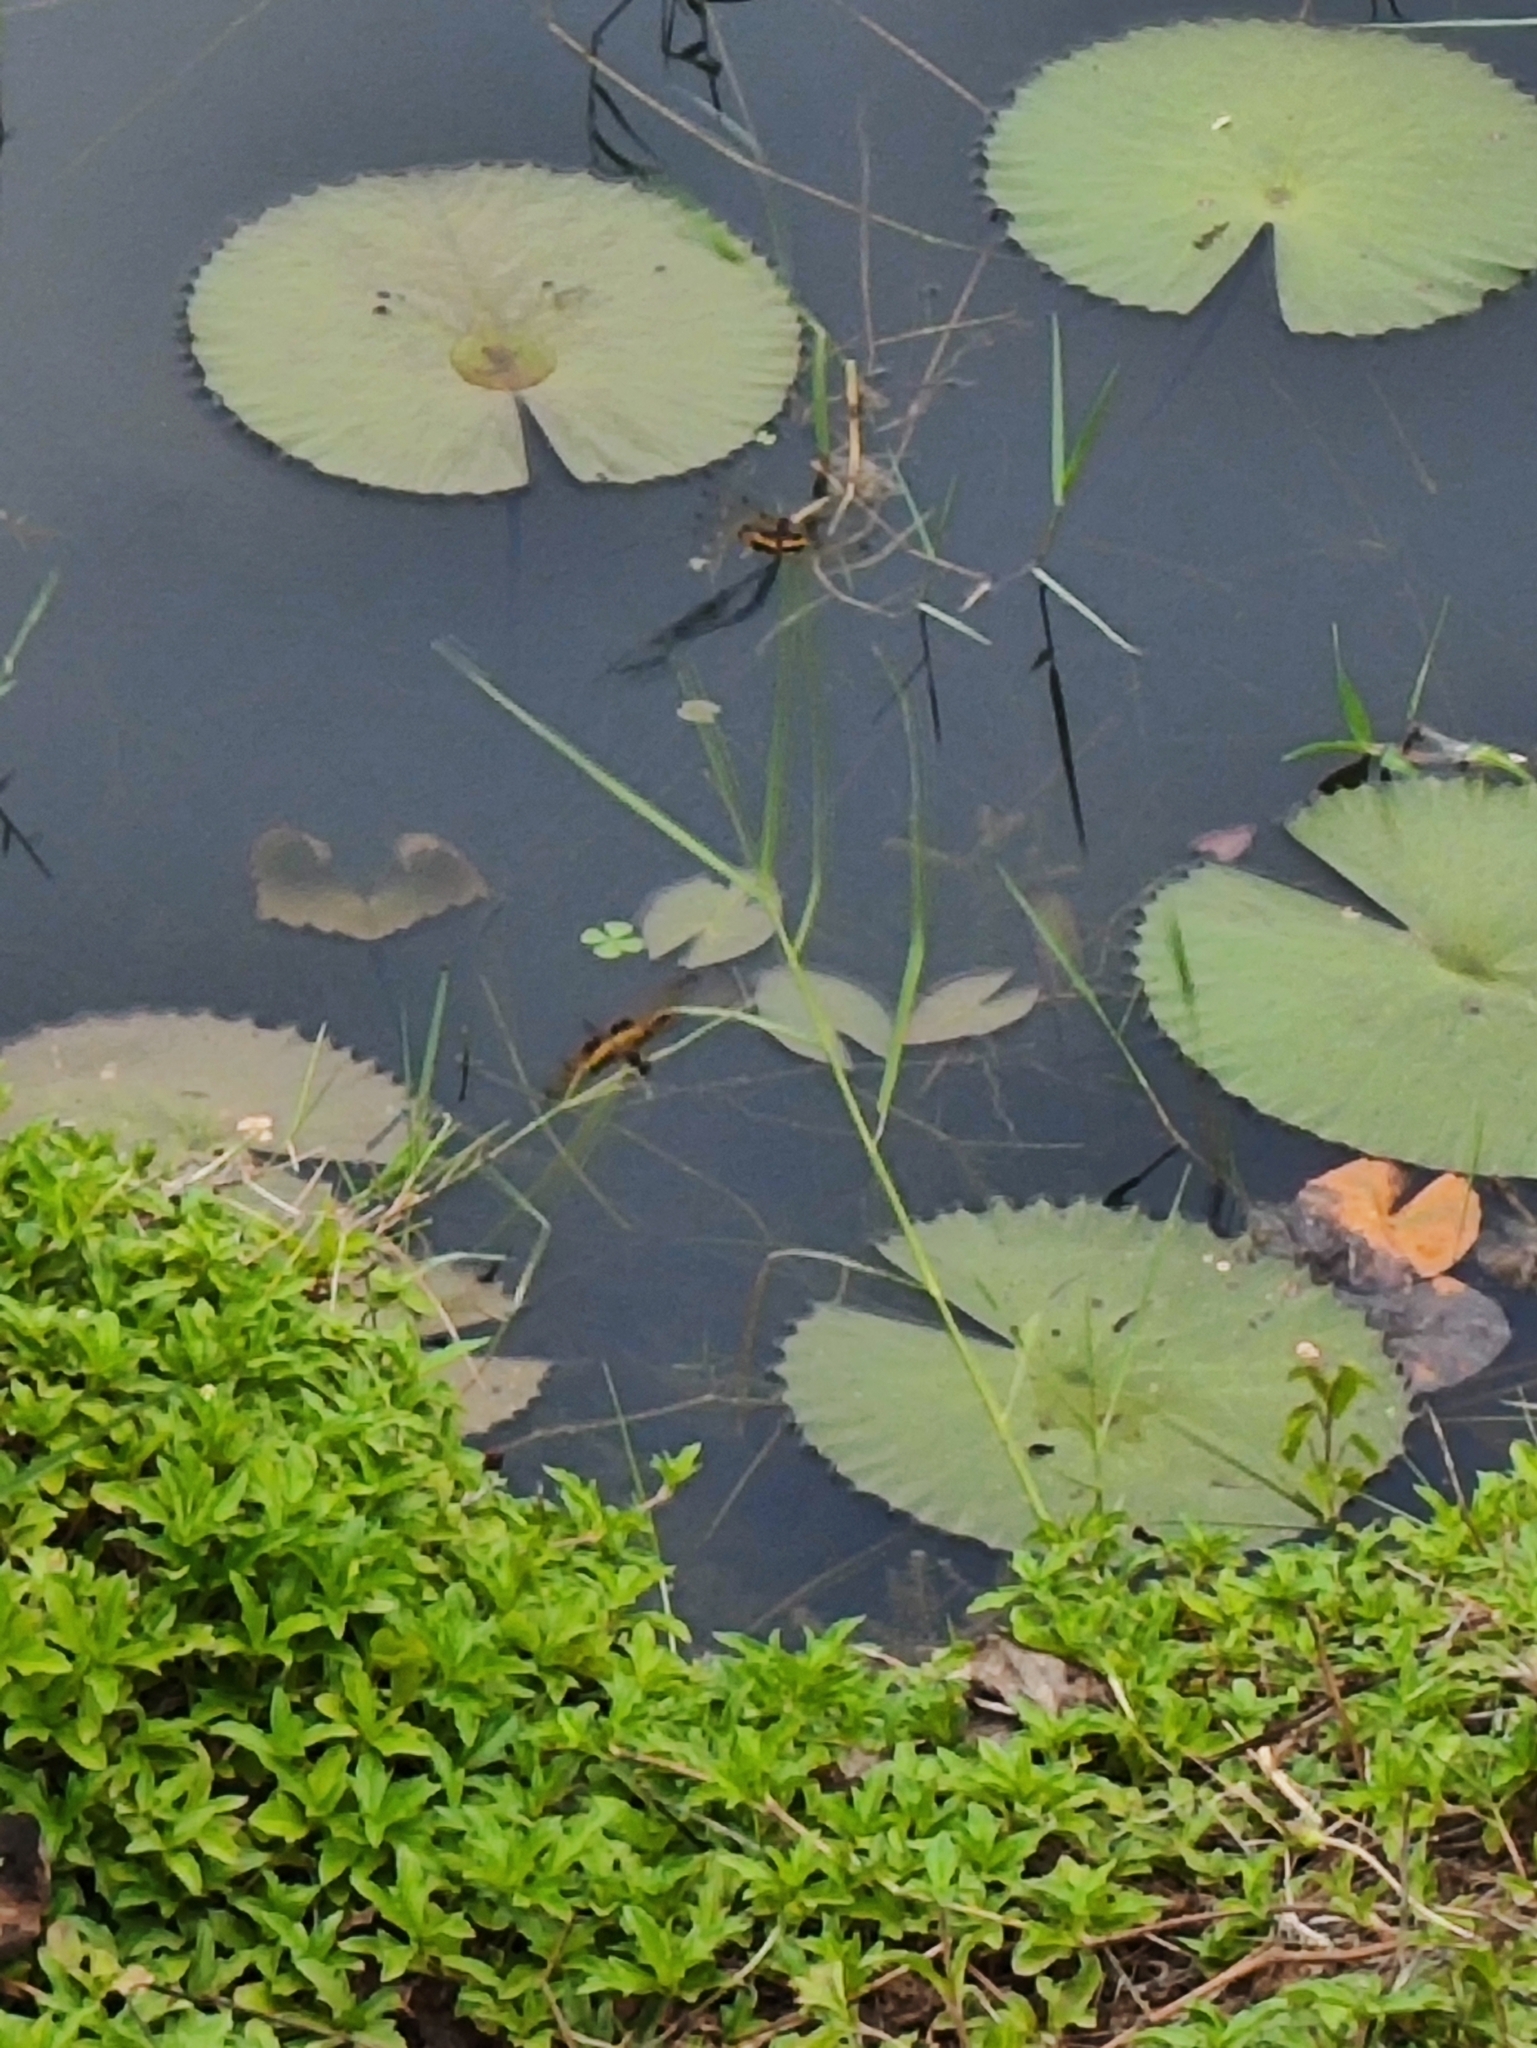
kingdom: Animalia
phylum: Arthropoda
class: Insecta
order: Odonata
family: Libellulidae
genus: Rhyothemis
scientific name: Rhyothemis variegata
